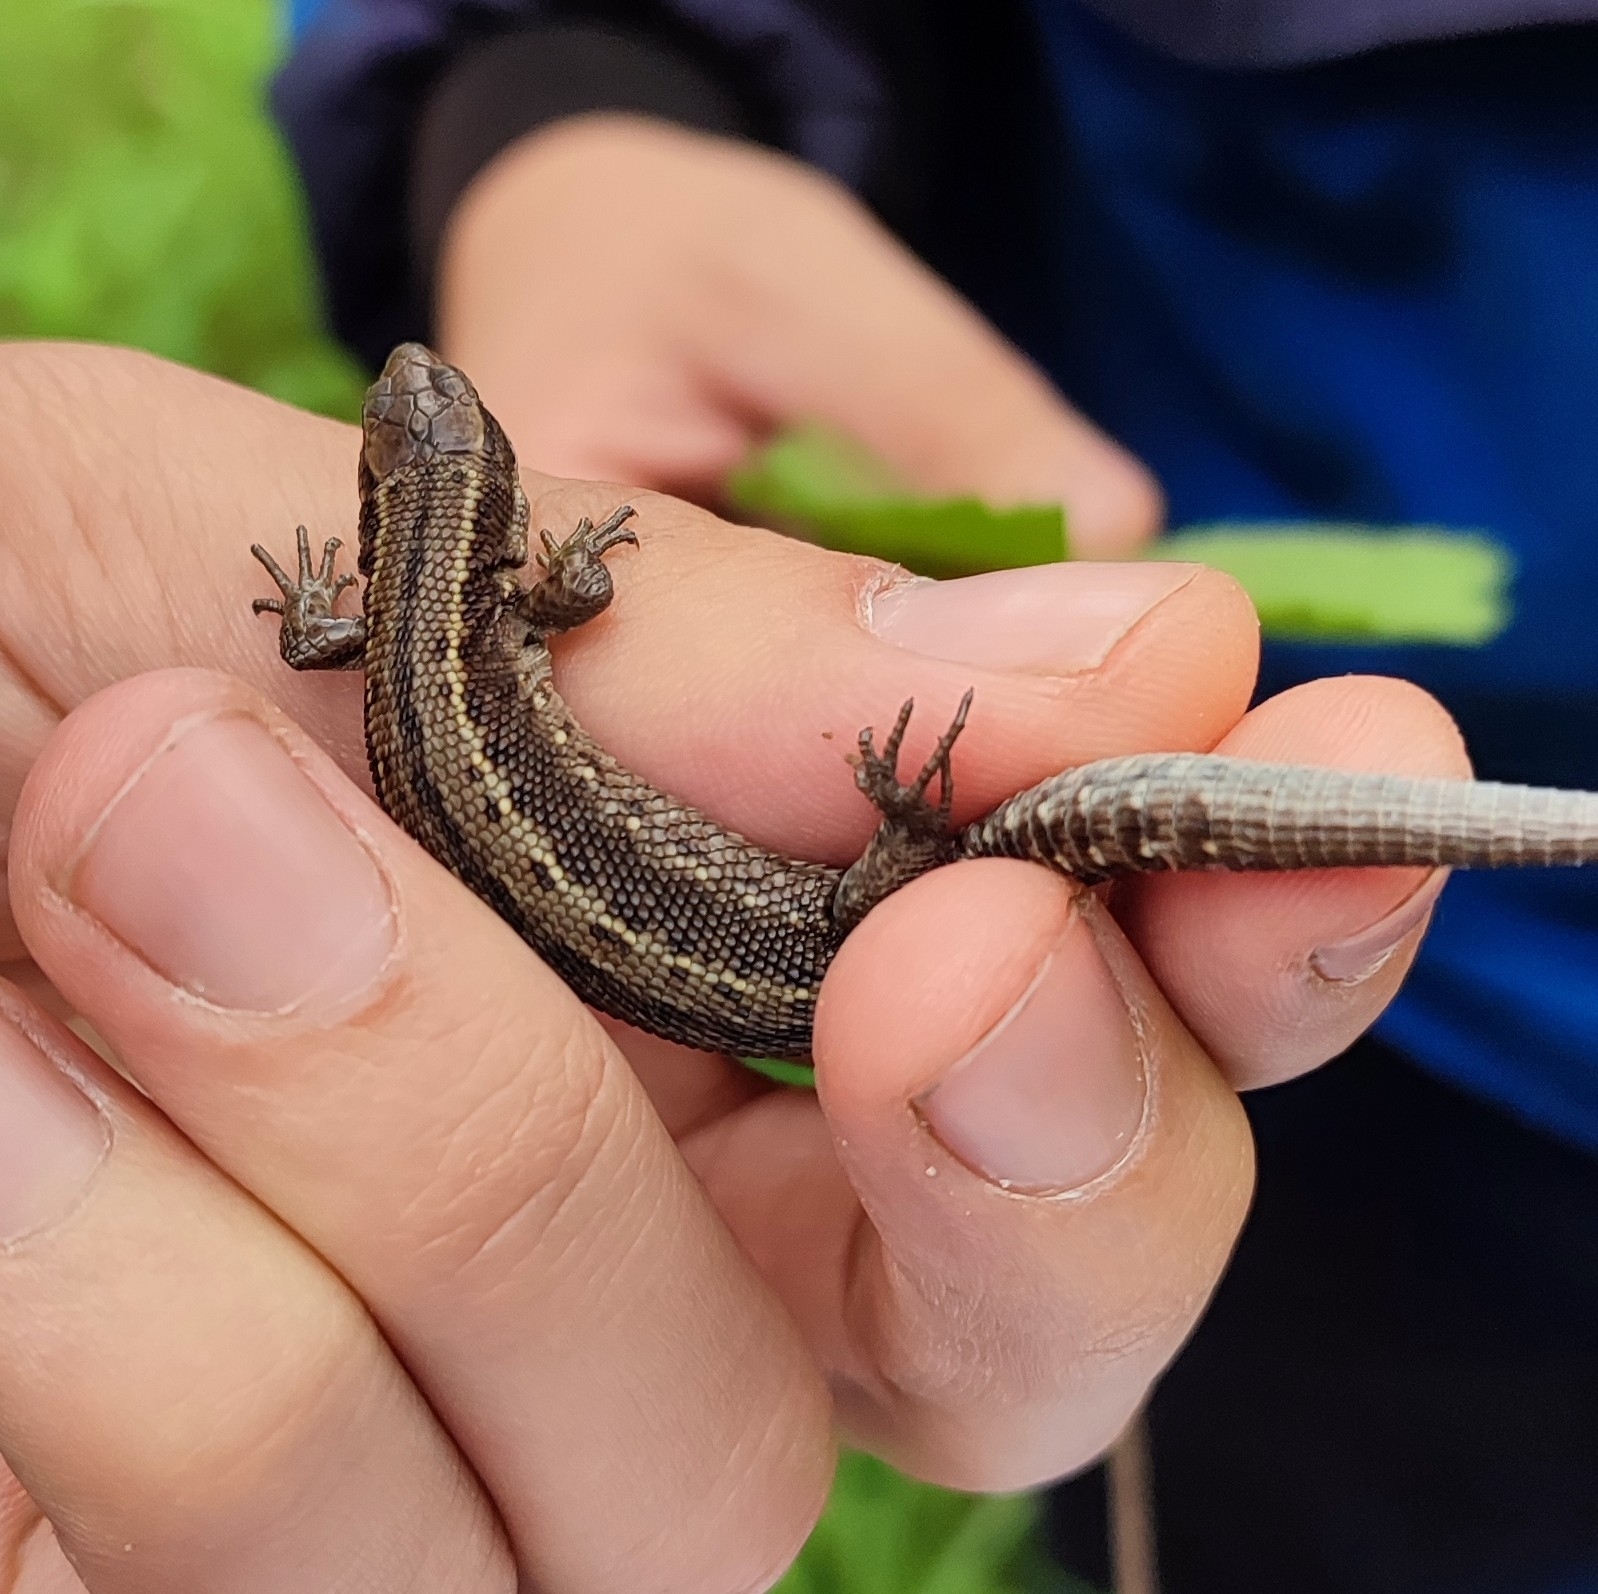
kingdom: Animalia
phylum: Chordata
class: Squamata
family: Lacertidae
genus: Zootoca
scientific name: Zootoca vivipara
